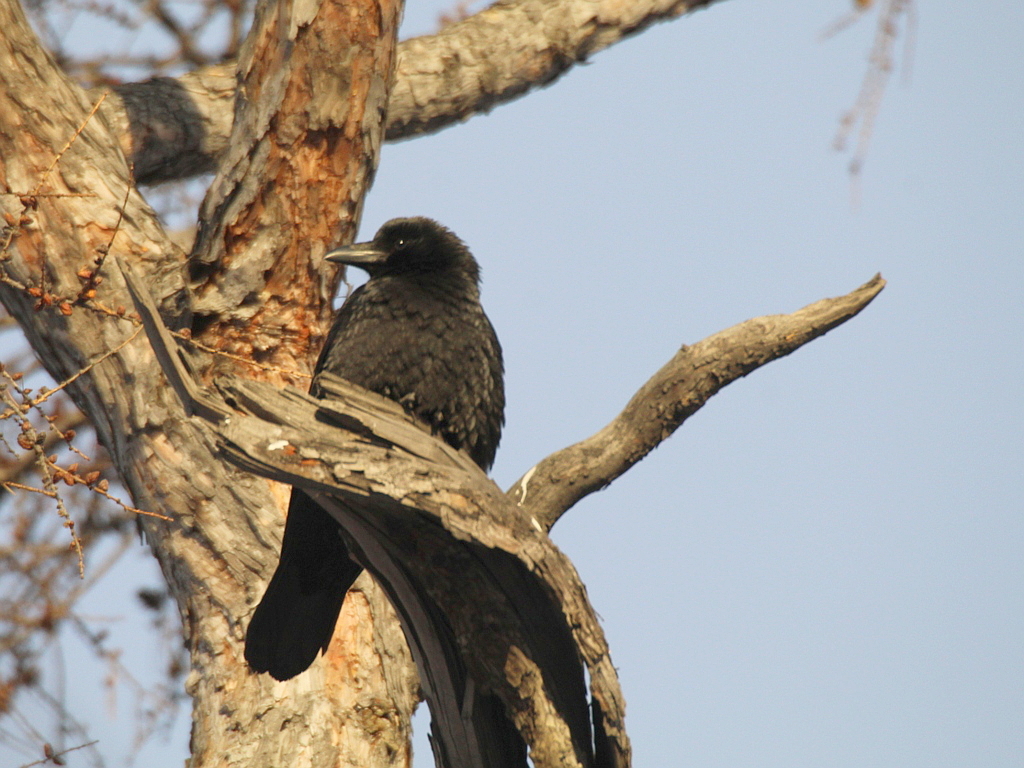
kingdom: Animalia
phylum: Chordata
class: Aves
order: Passeriformes
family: Corvidae
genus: Corvus
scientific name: Corvus corone
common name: Carrion crow
